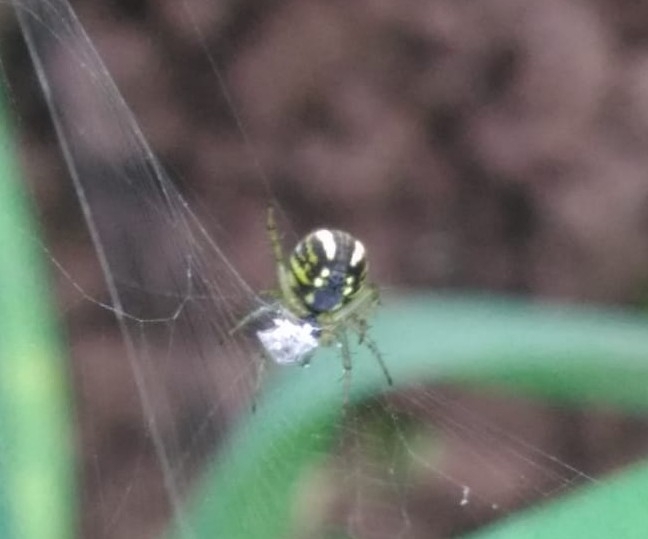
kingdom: Animalia
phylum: Arthropoda
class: Arachnida
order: Araneae
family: Araneidae
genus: Mangora
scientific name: Mangora acalypha
